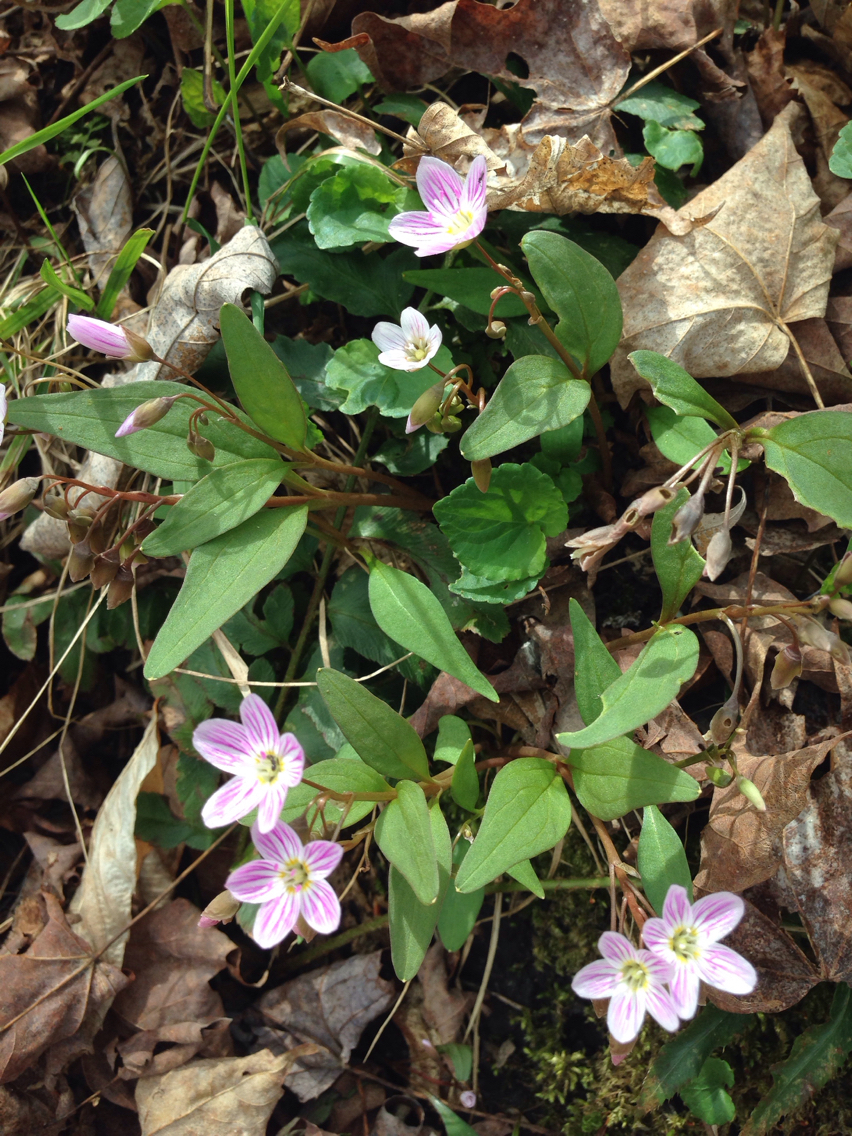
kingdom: Plantae
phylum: Tracheophyta
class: Magnoliopsida
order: Caryophyllales
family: Montiaceae
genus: Claytonia
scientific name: Claytonia caroliniana
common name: Carolina spring beauty
